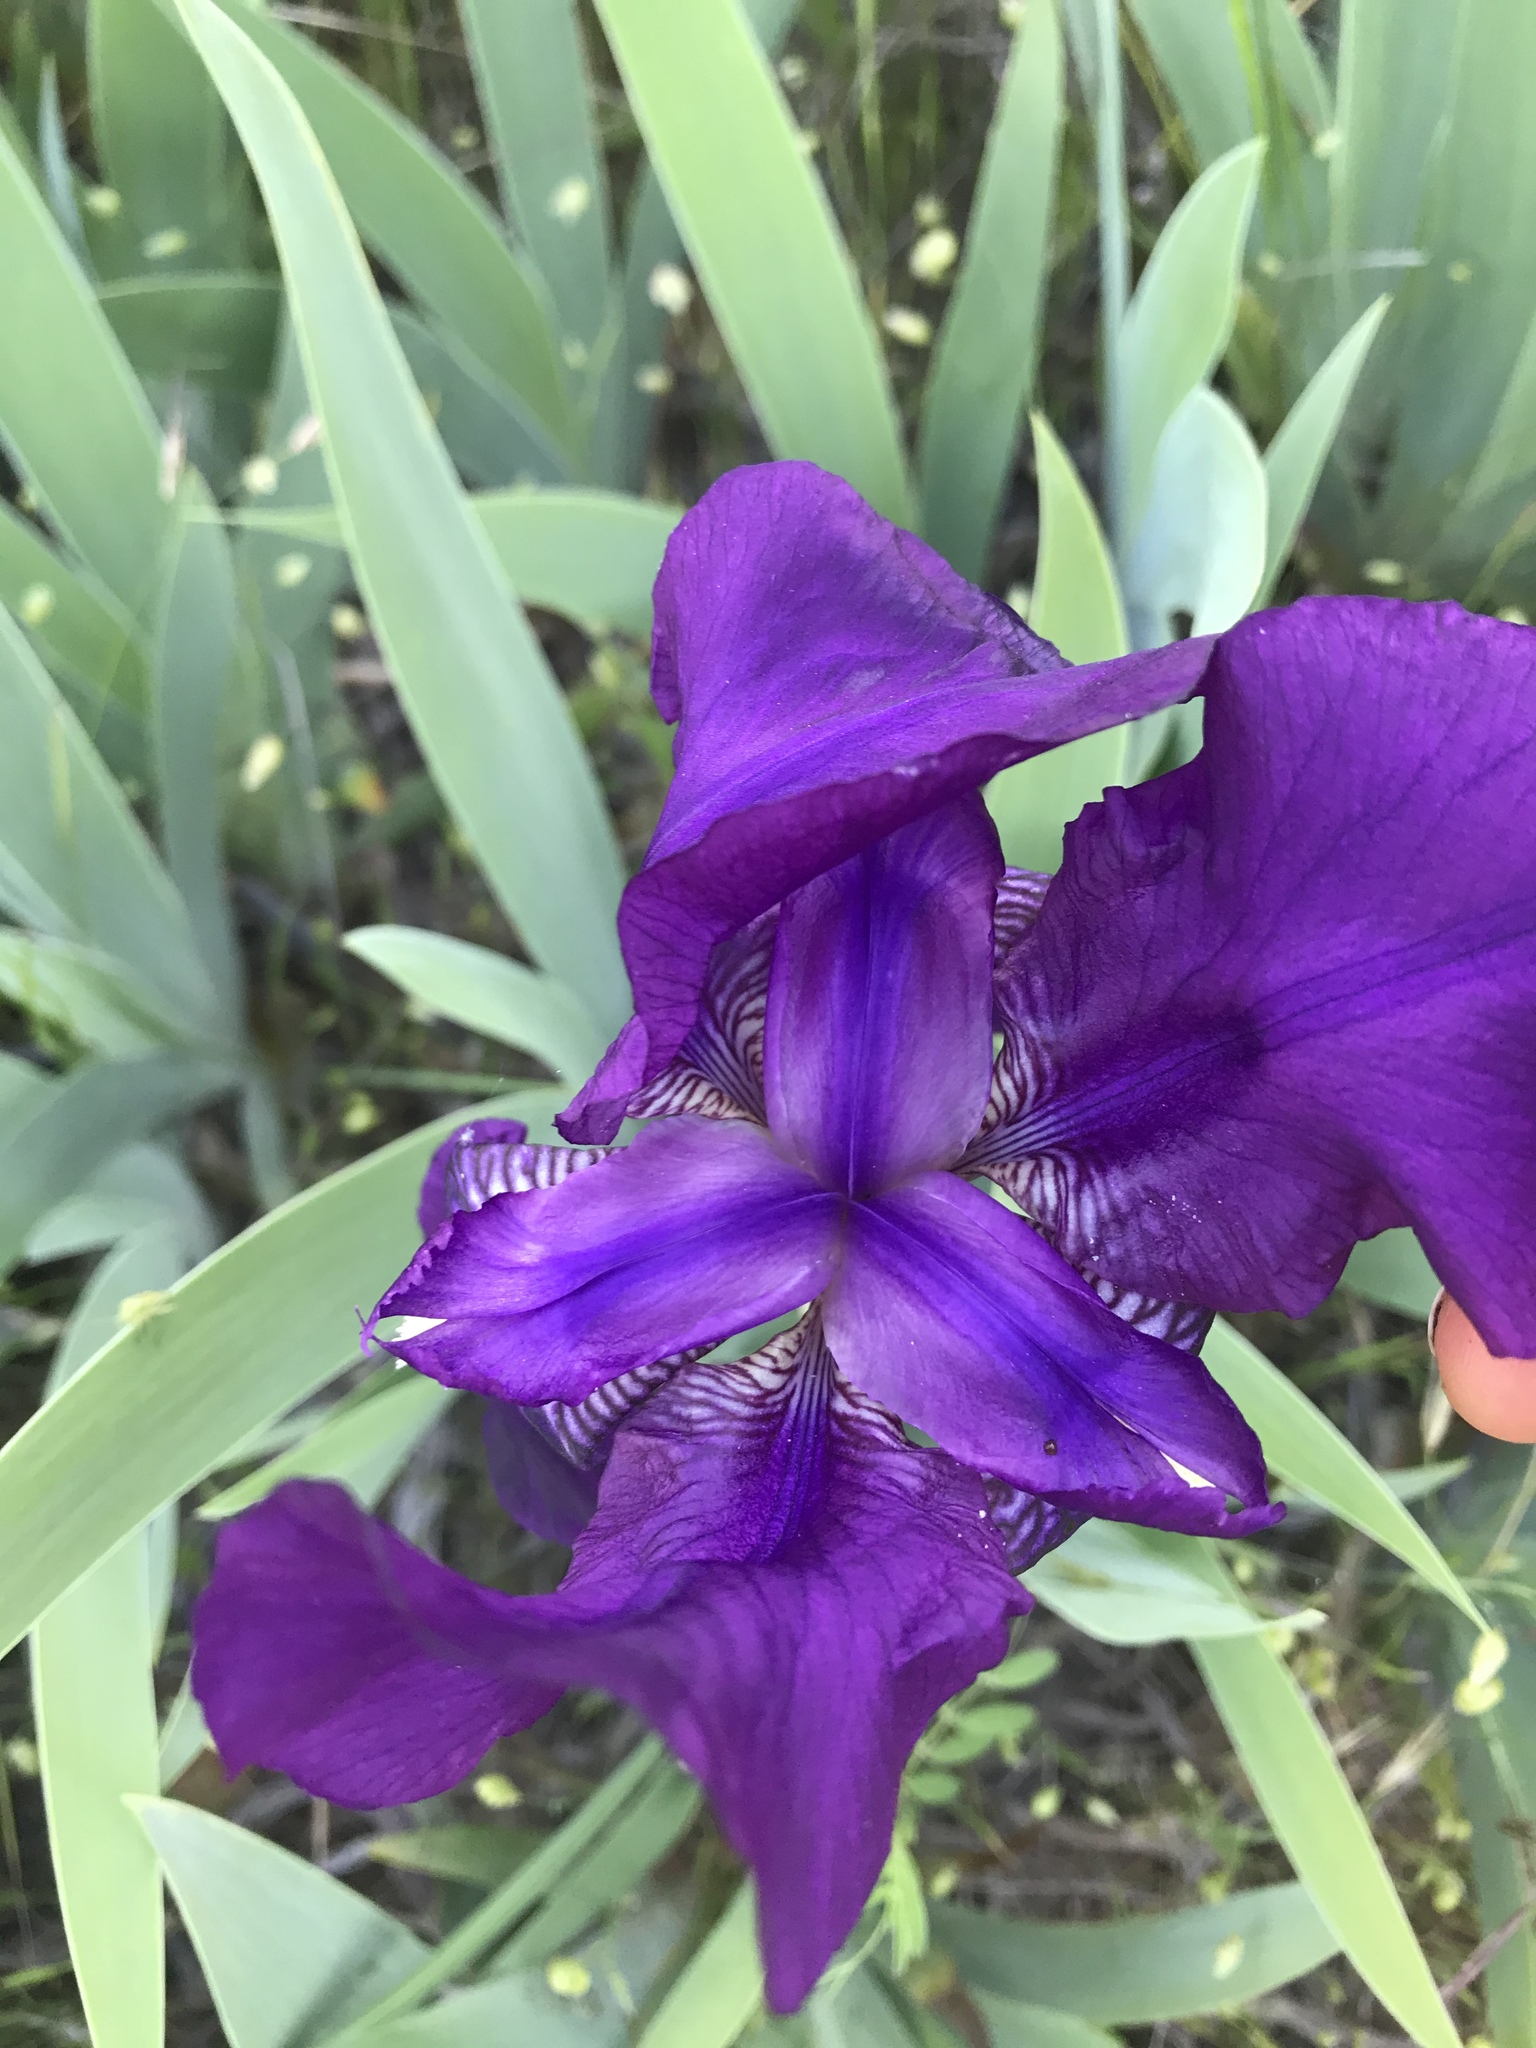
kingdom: Plantae
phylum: Tracheophyta
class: Liliopsida
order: Asparagales
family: Iridaceae
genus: Iris
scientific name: Iris germanica
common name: German iris
